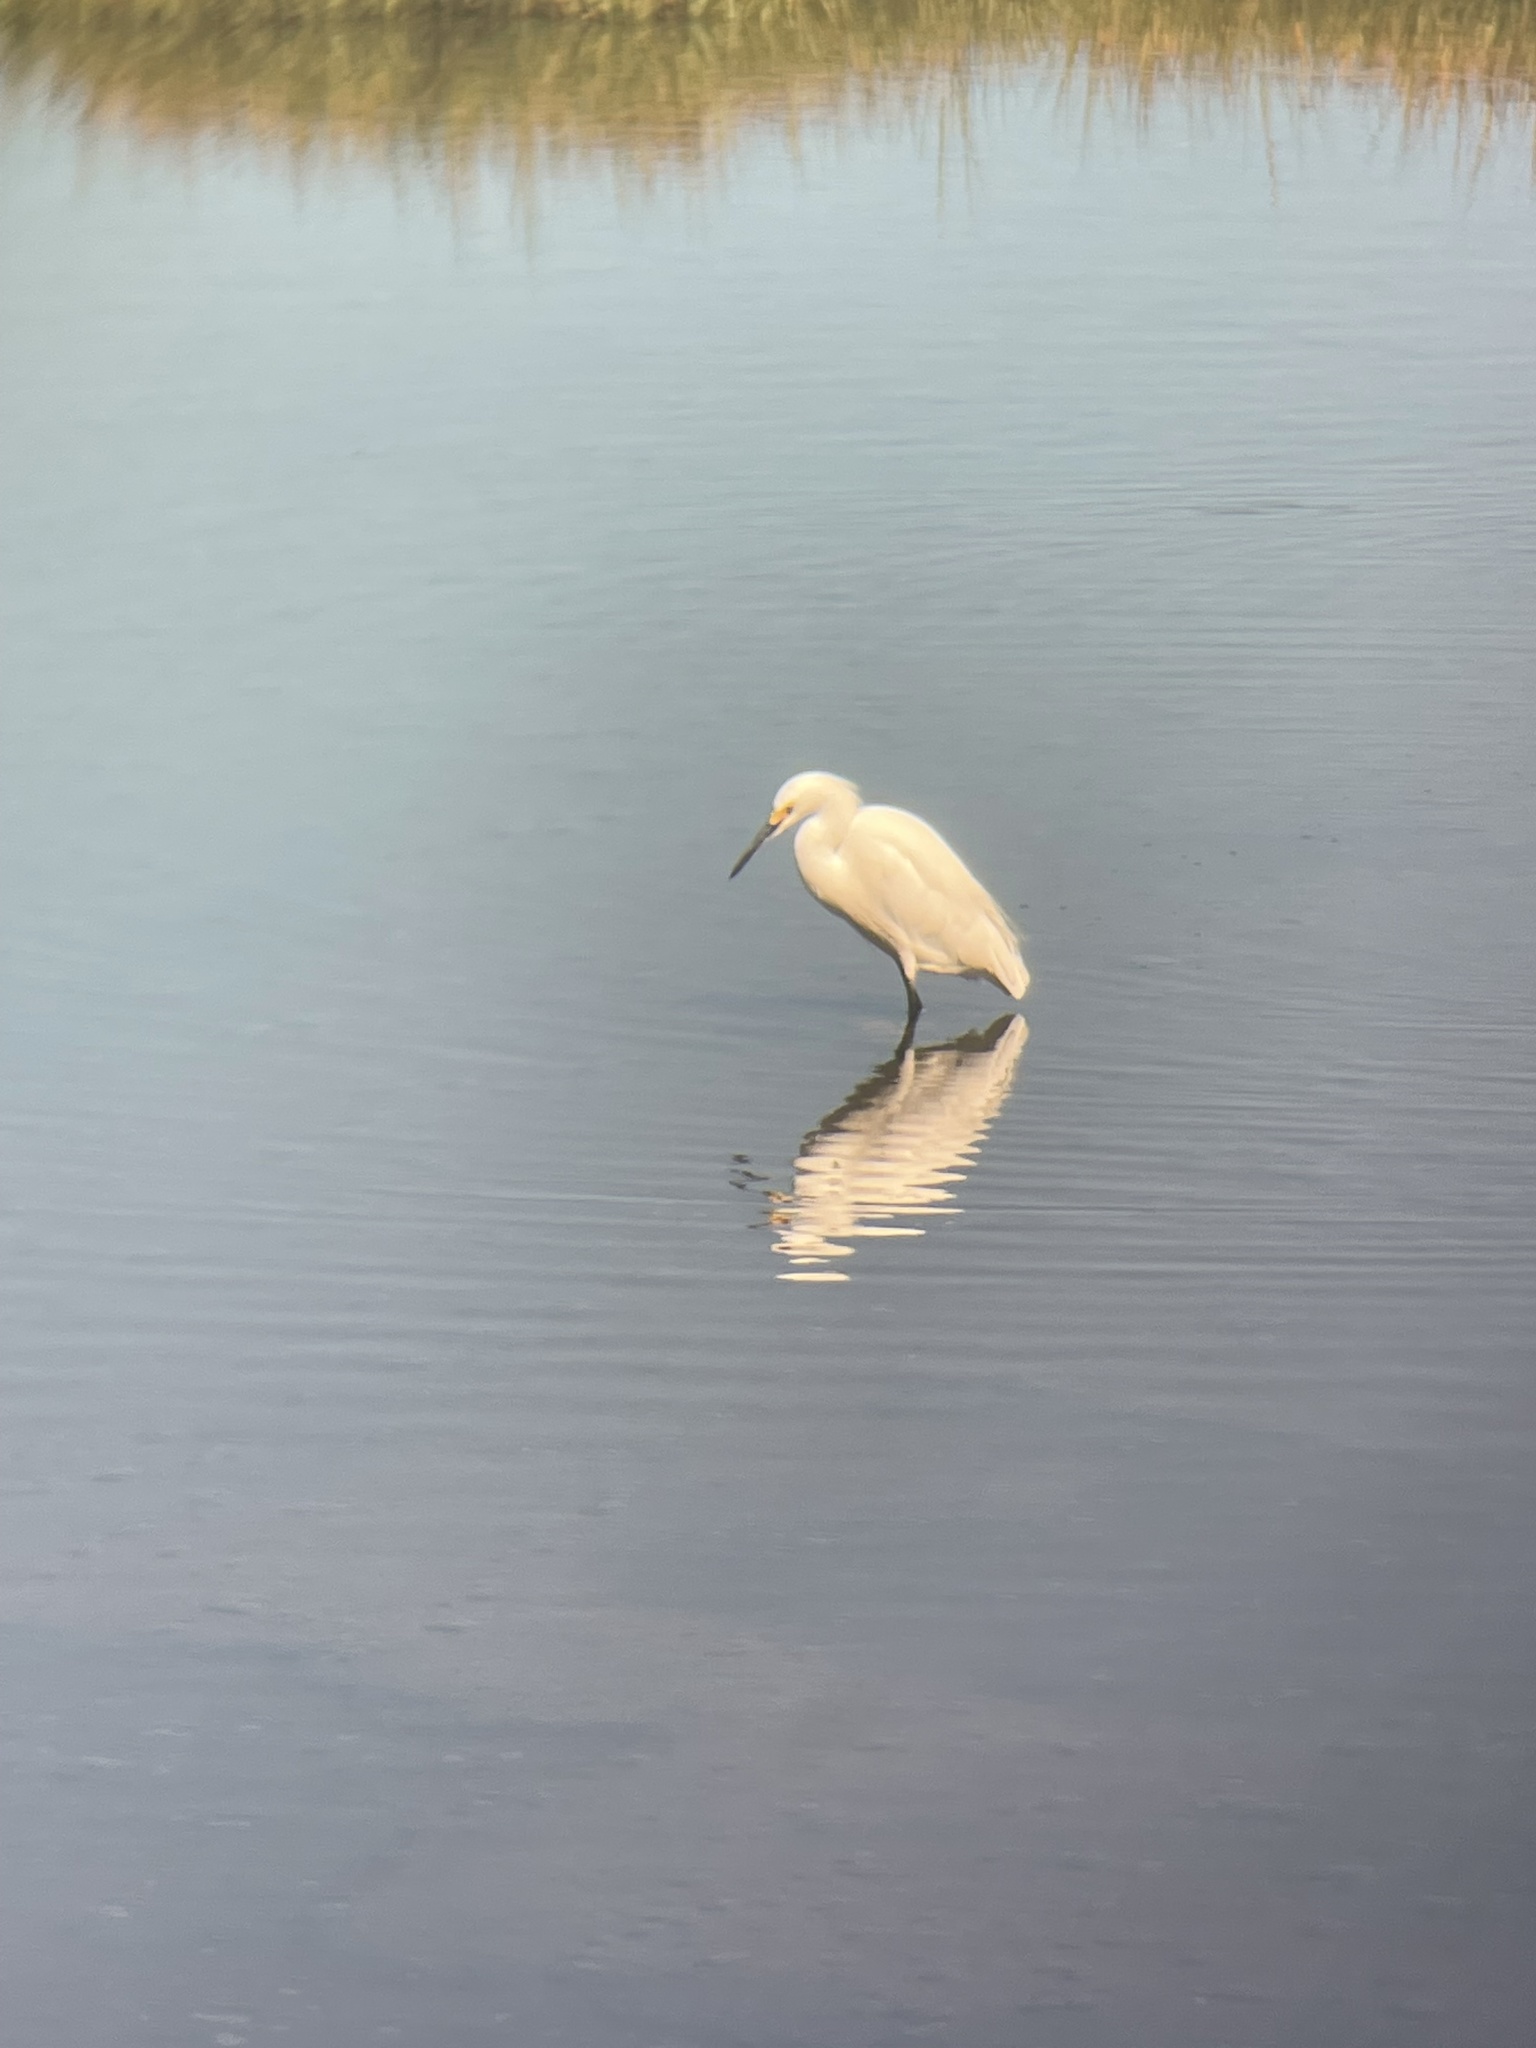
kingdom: Animalia
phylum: Chordata
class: Aves
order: Pelecaniformes
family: Ardeidae
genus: Egretta
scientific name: Egretta thula
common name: Snowy egret
